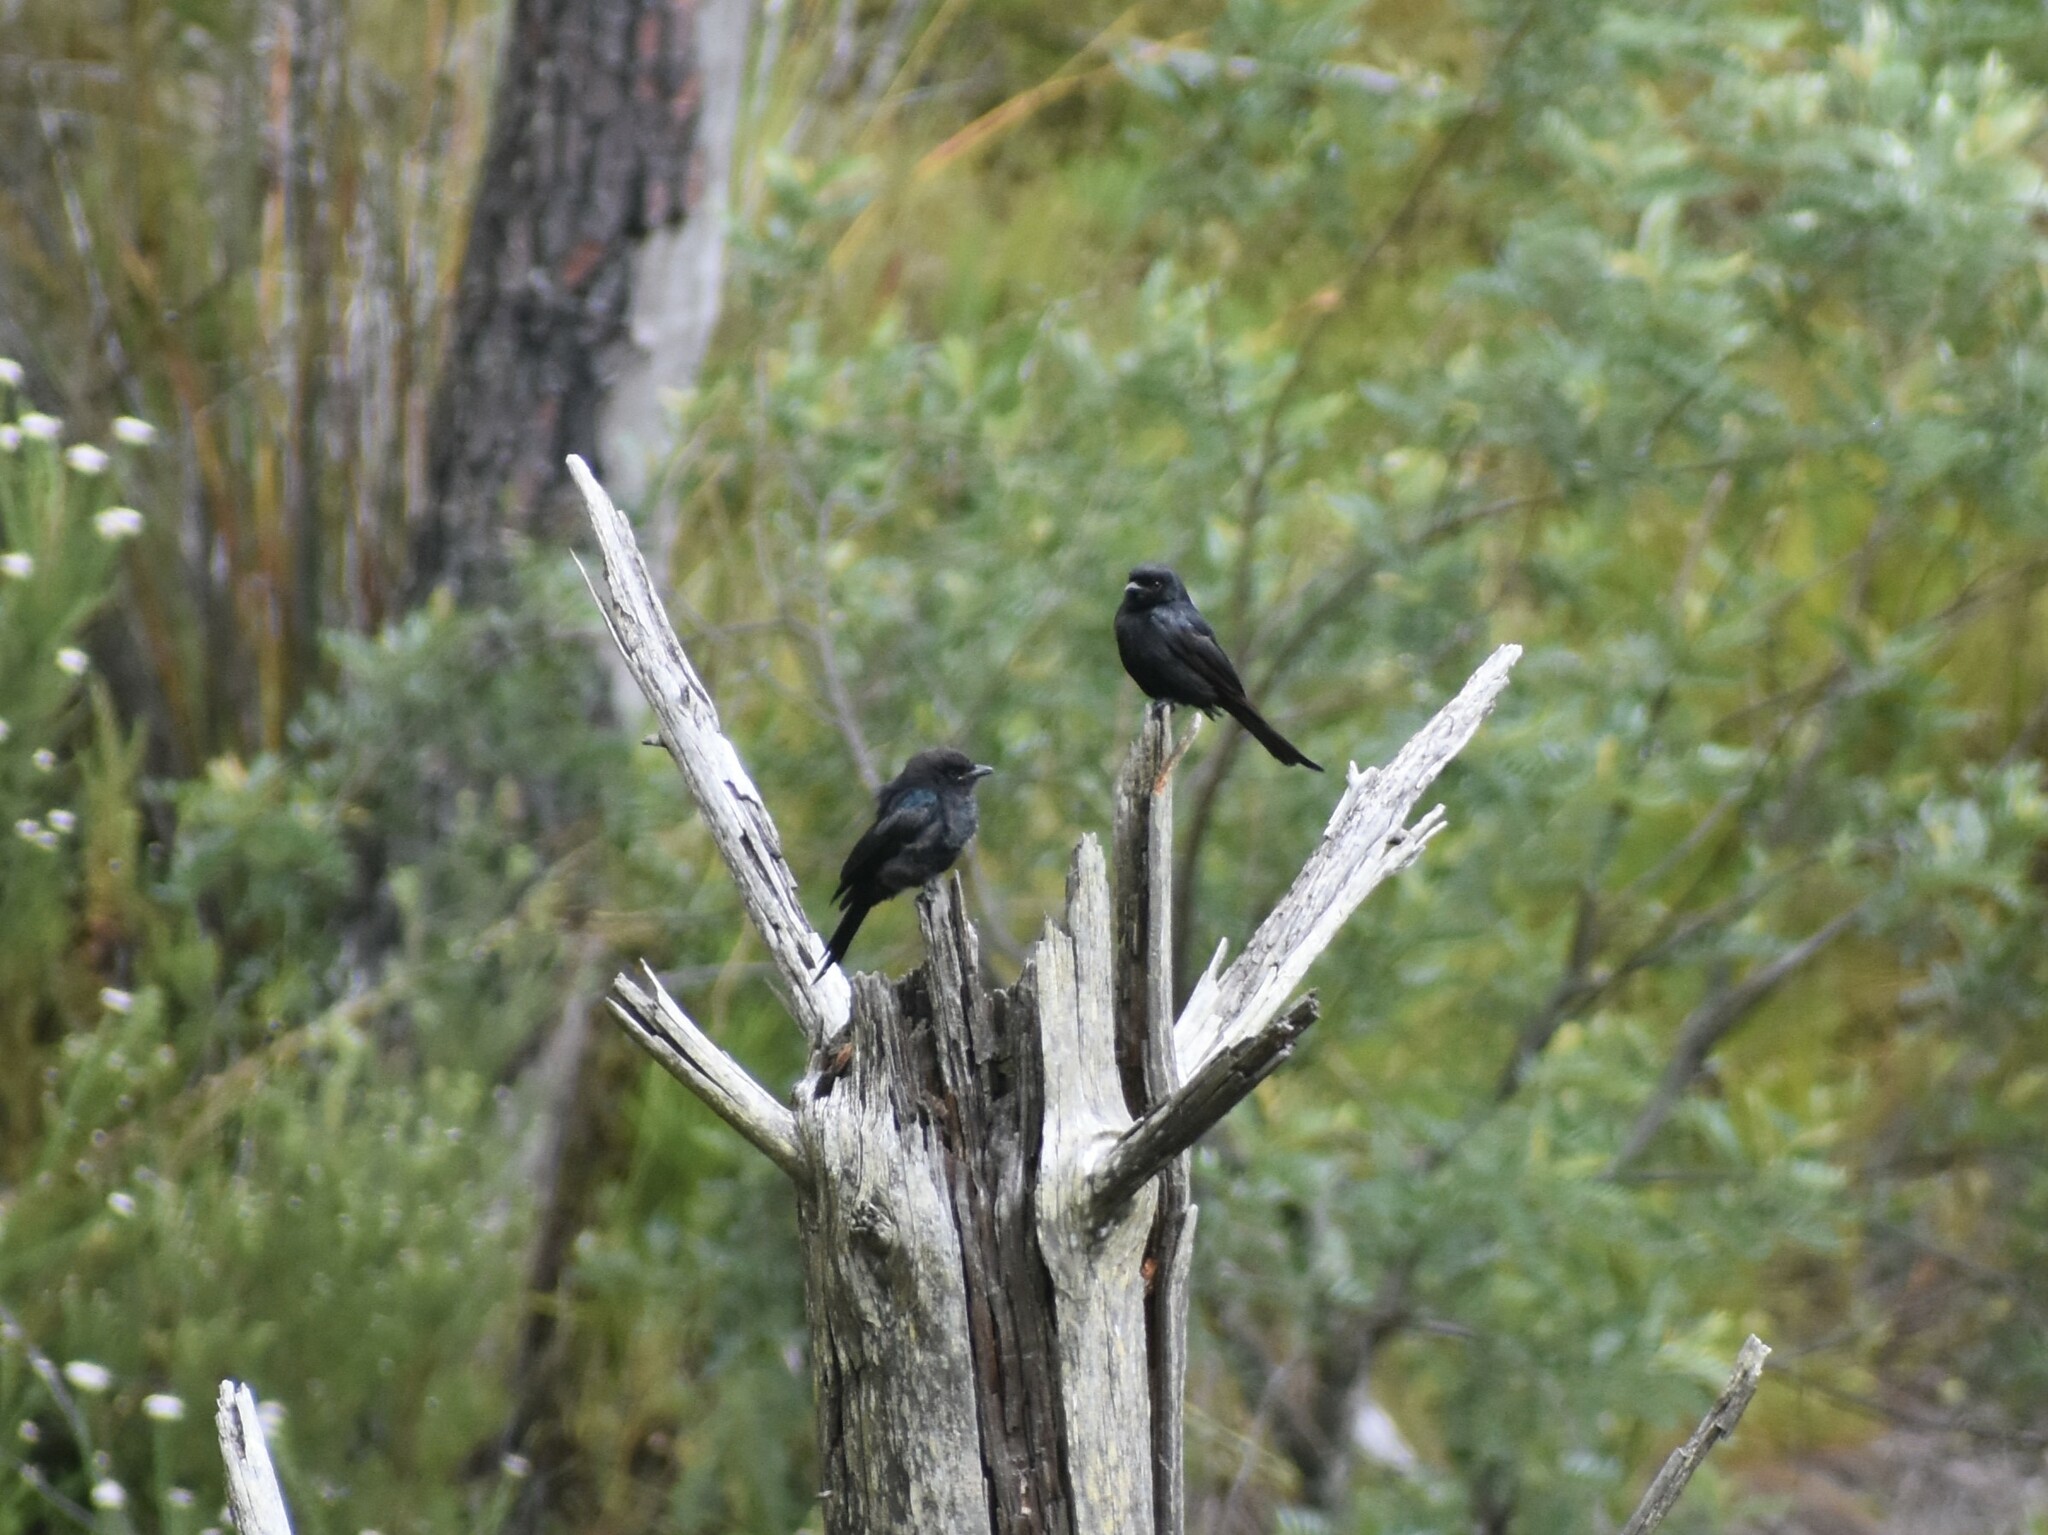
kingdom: Animalia
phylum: Chordata
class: Aves
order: Passeriformes
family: Dicruridae
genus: Dicrurus
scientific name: Dicrurus adsimilis
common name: Fork-tailed drongo
